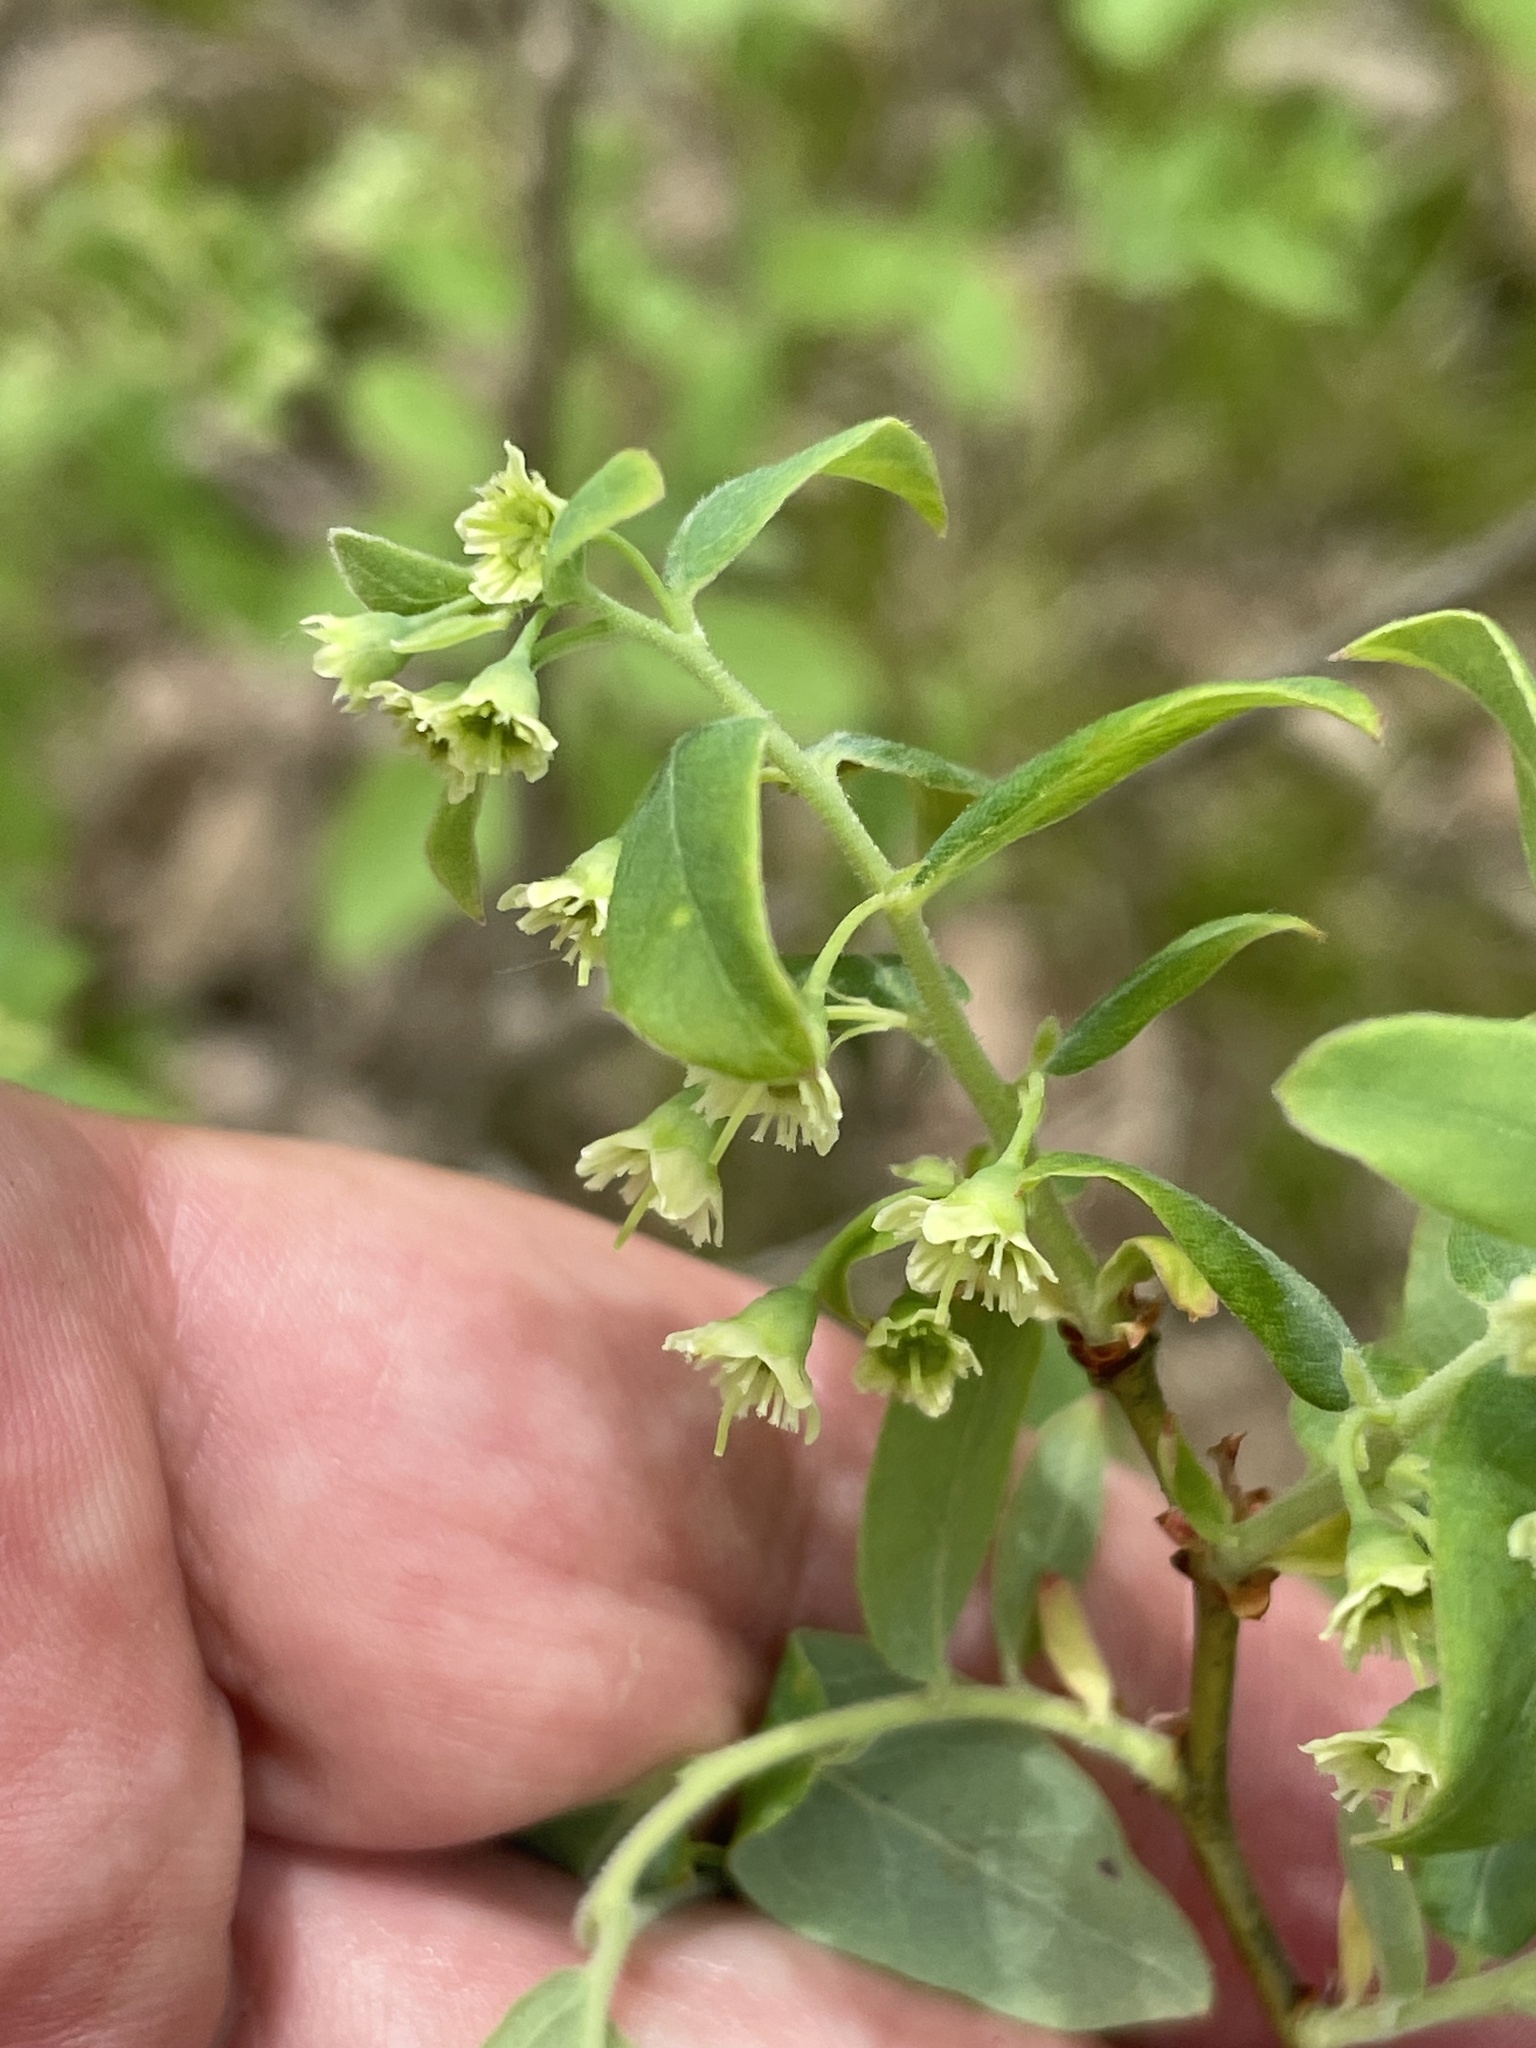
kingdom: Plantae
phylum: Tracheophyta
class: Magnoliopsida
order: Ericales
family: Ericaceae
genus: Vaccinium
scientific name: Vaccinium stamineum
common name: Deerberry
